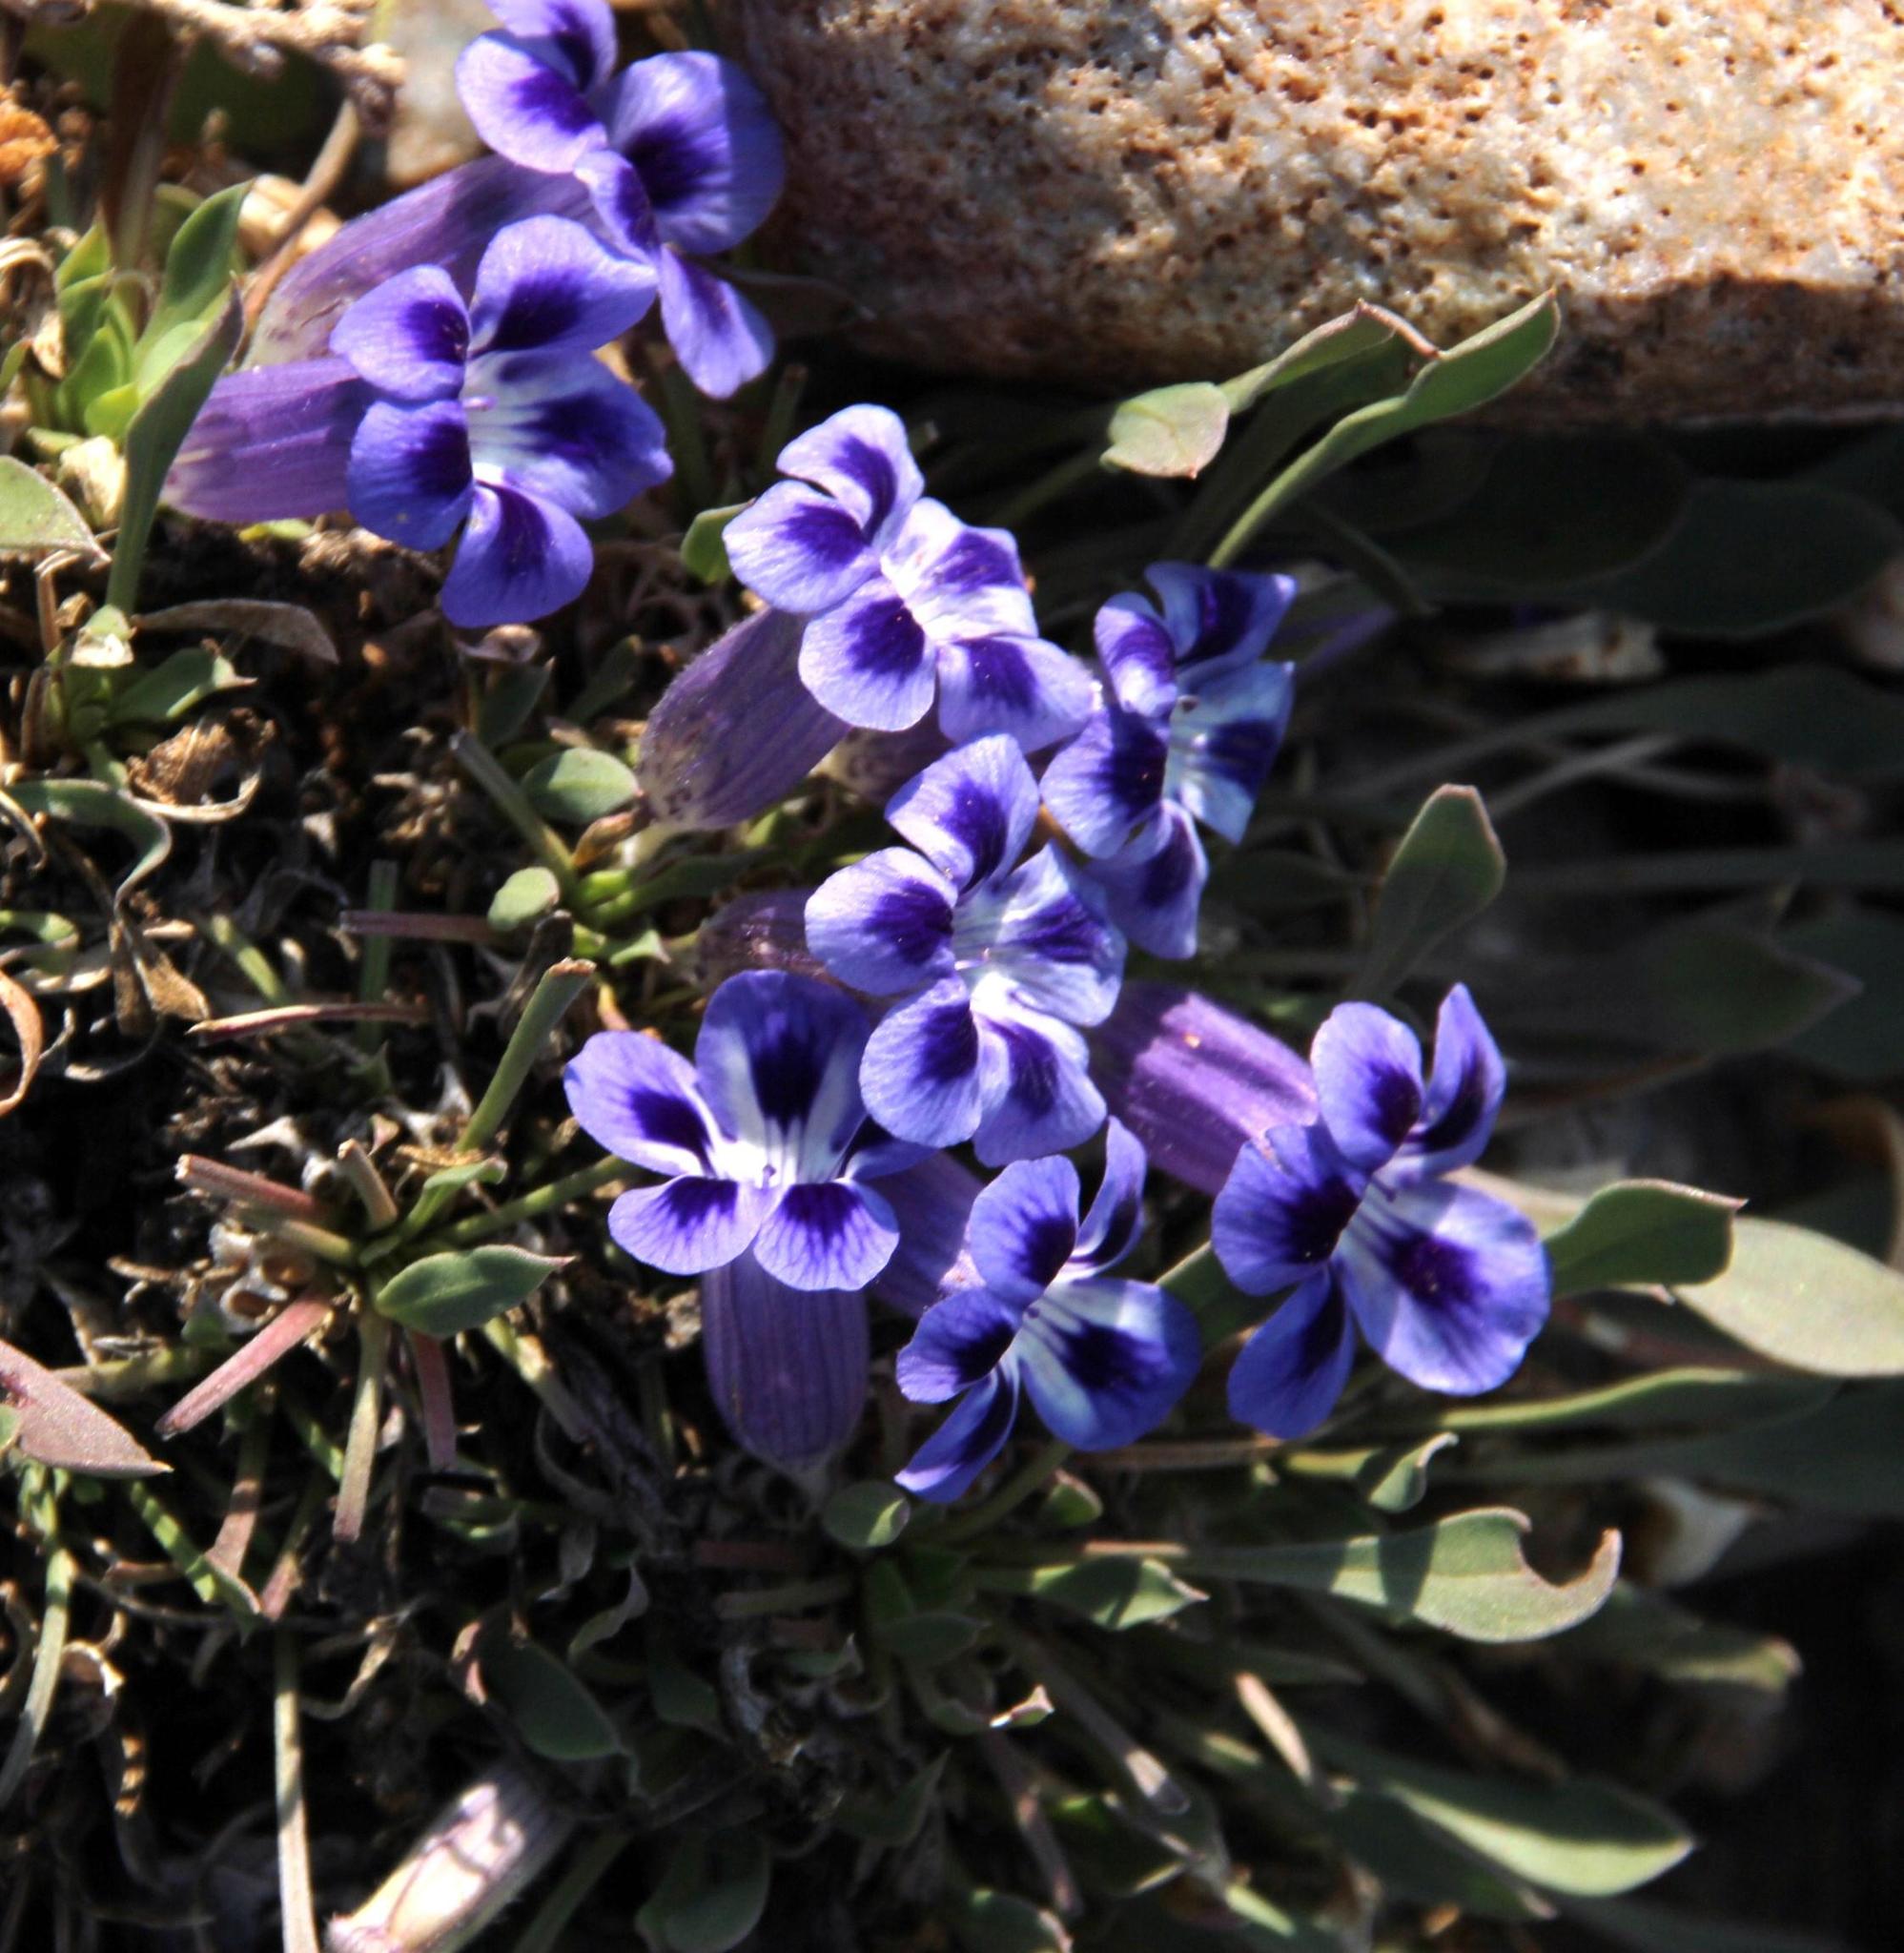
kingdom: Plantae
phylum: Tracheophyta
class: Magnoliopsida
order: Lamiales
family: Scrophulariaceae
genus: Aptosimum
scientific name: Aptosimum indivisum
